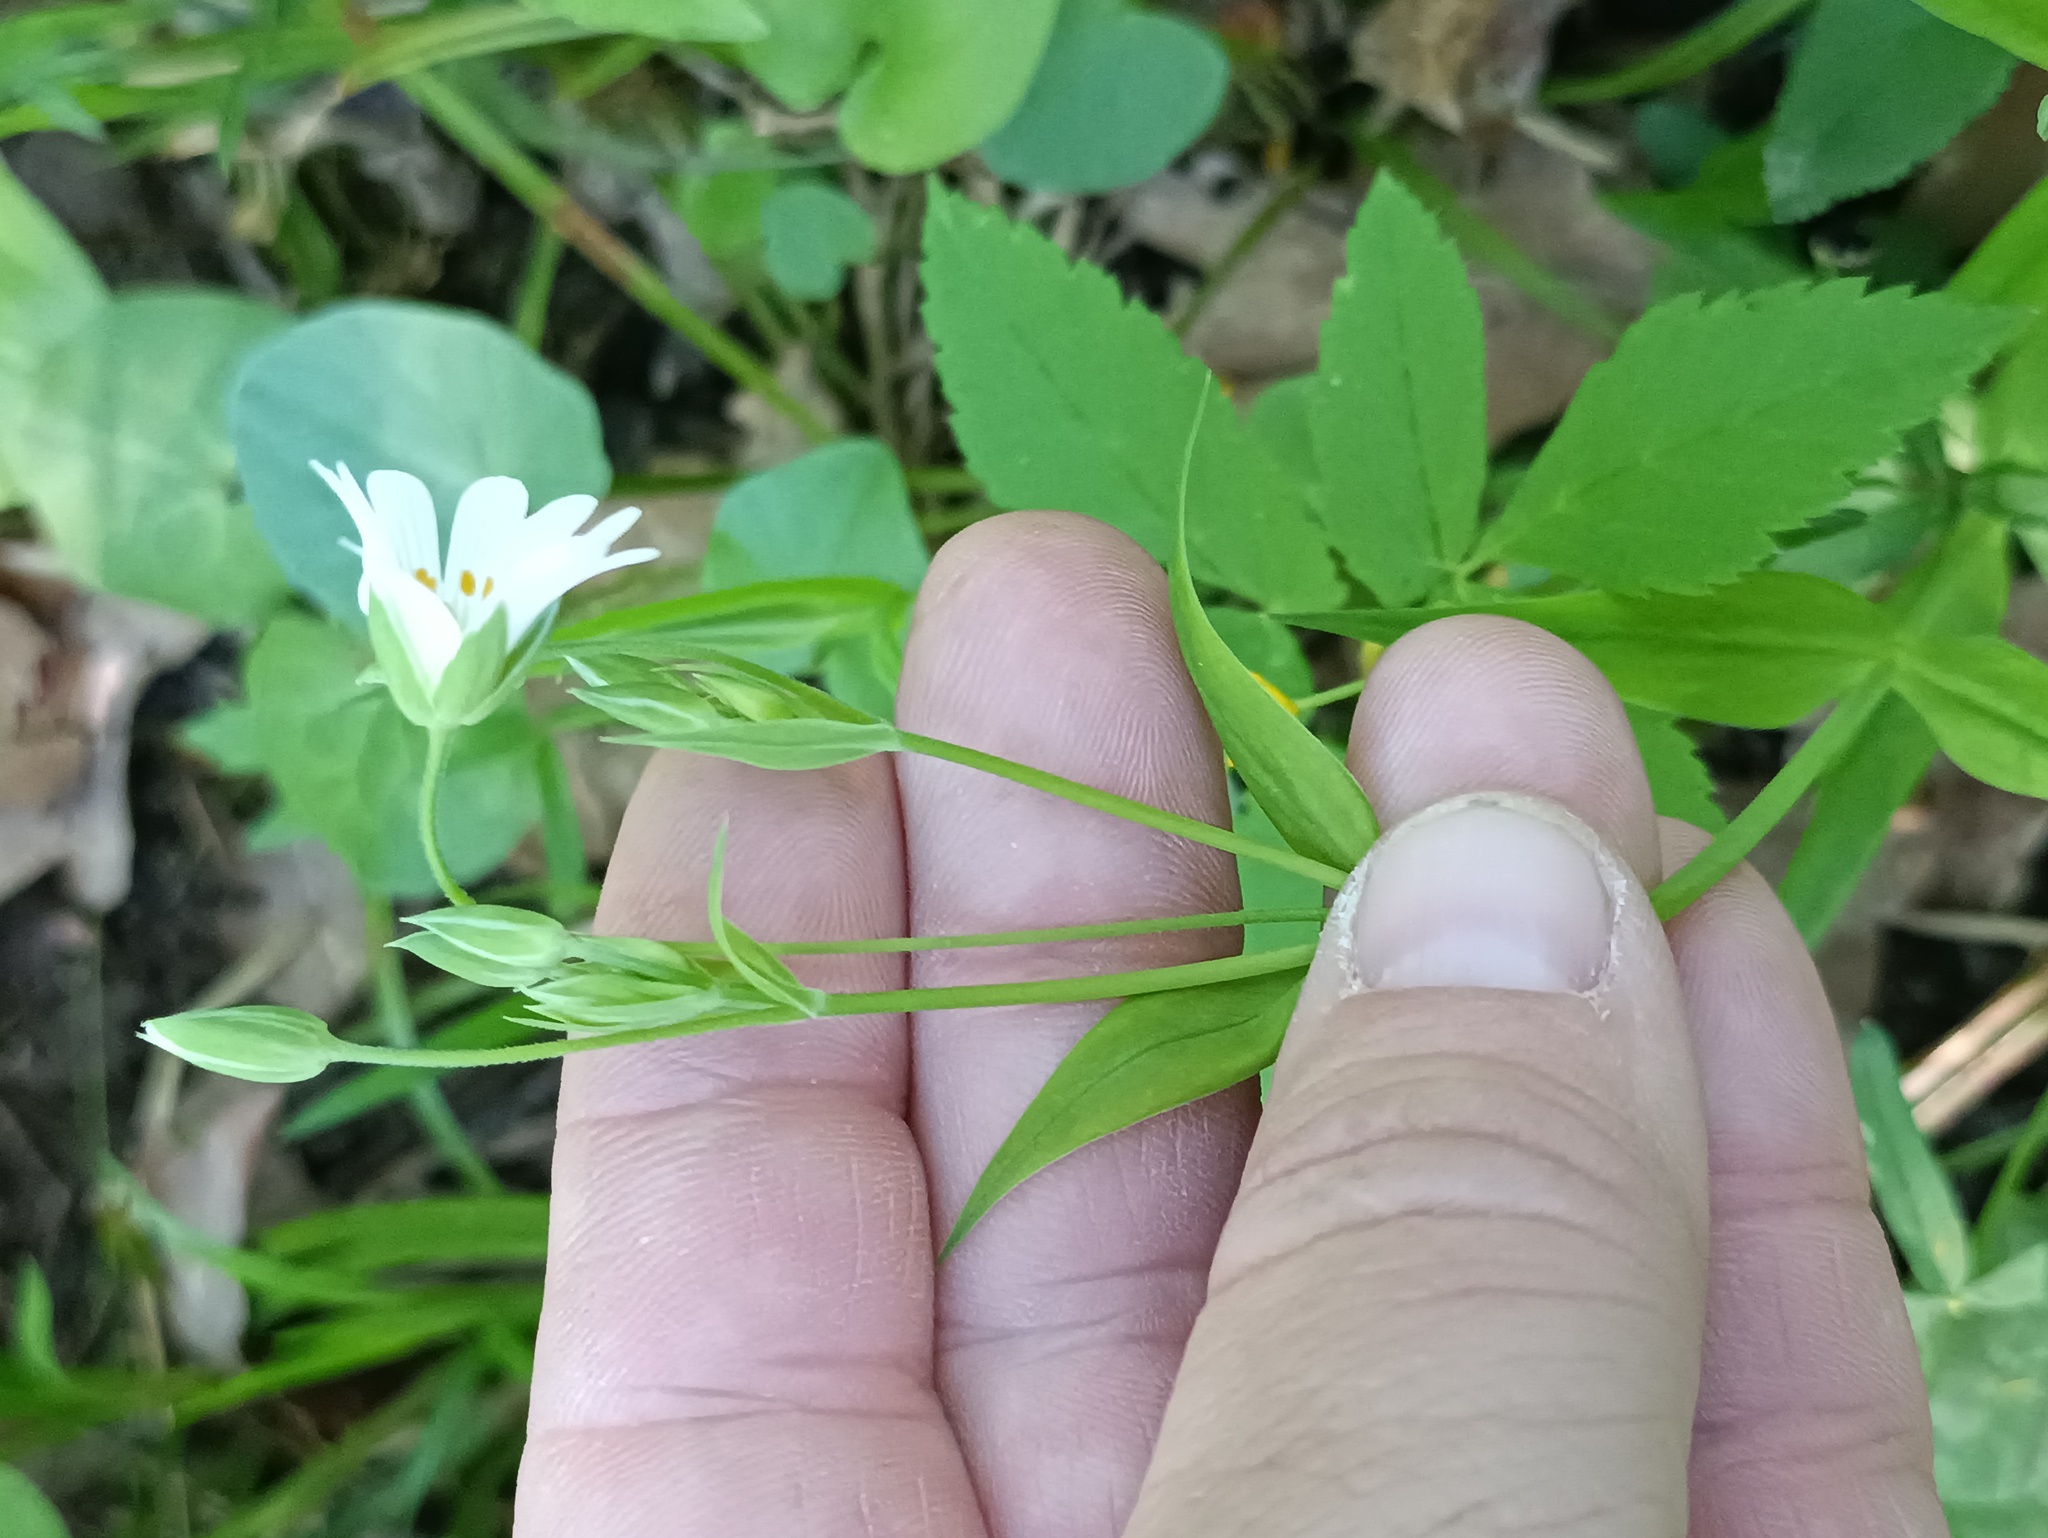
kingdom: Plantae
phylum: Tracheophyta
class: Magnoliopsida
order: Caryophyllales
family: Caryophyllaceae
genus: Rabelera
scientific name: Rabelera holostea
